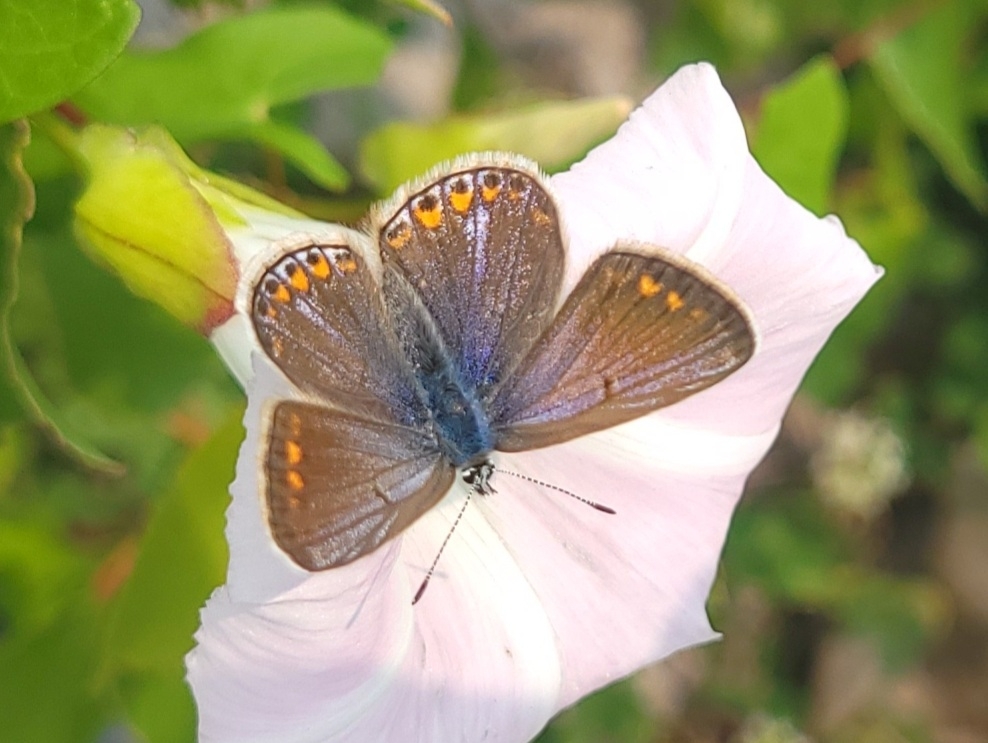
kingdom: Animalia
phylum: Arthropoda
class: Insecta
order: Lepidoptera
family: Lycaenidae
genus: Polyommatus
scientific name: Polyommatus icarus
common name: Common blue
